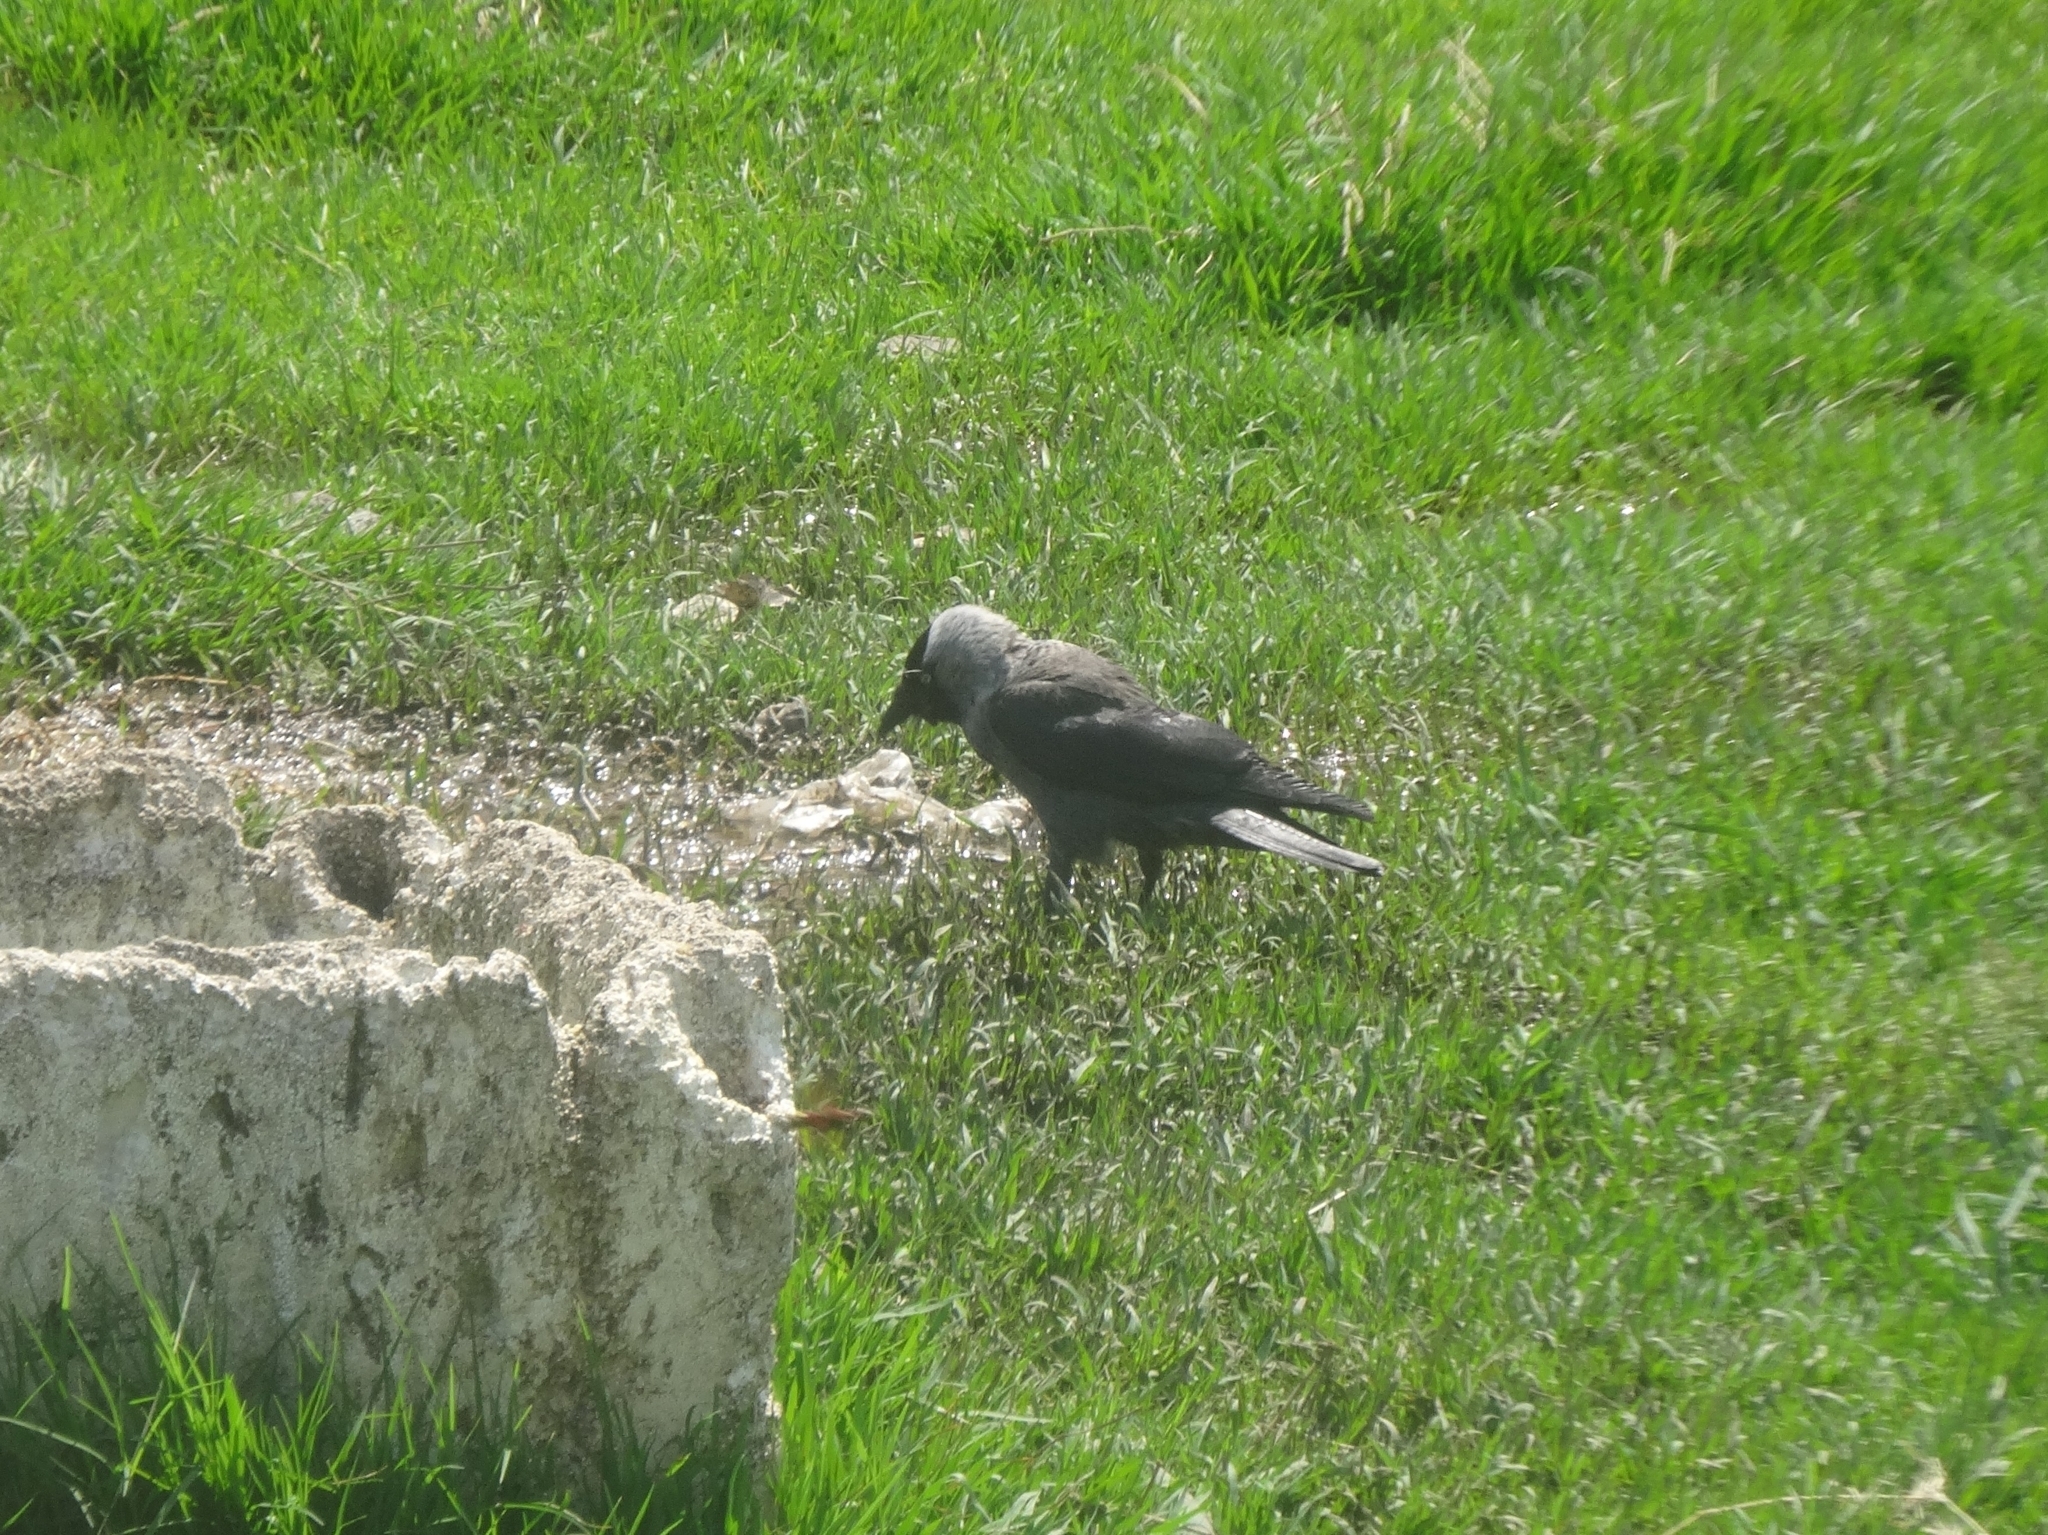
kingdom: Animalia
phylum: Chordata
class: Aves
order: Passeriformes
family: Corvidae
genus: Coloeus
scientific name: Coloeus monedula
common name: Western jackdaw
